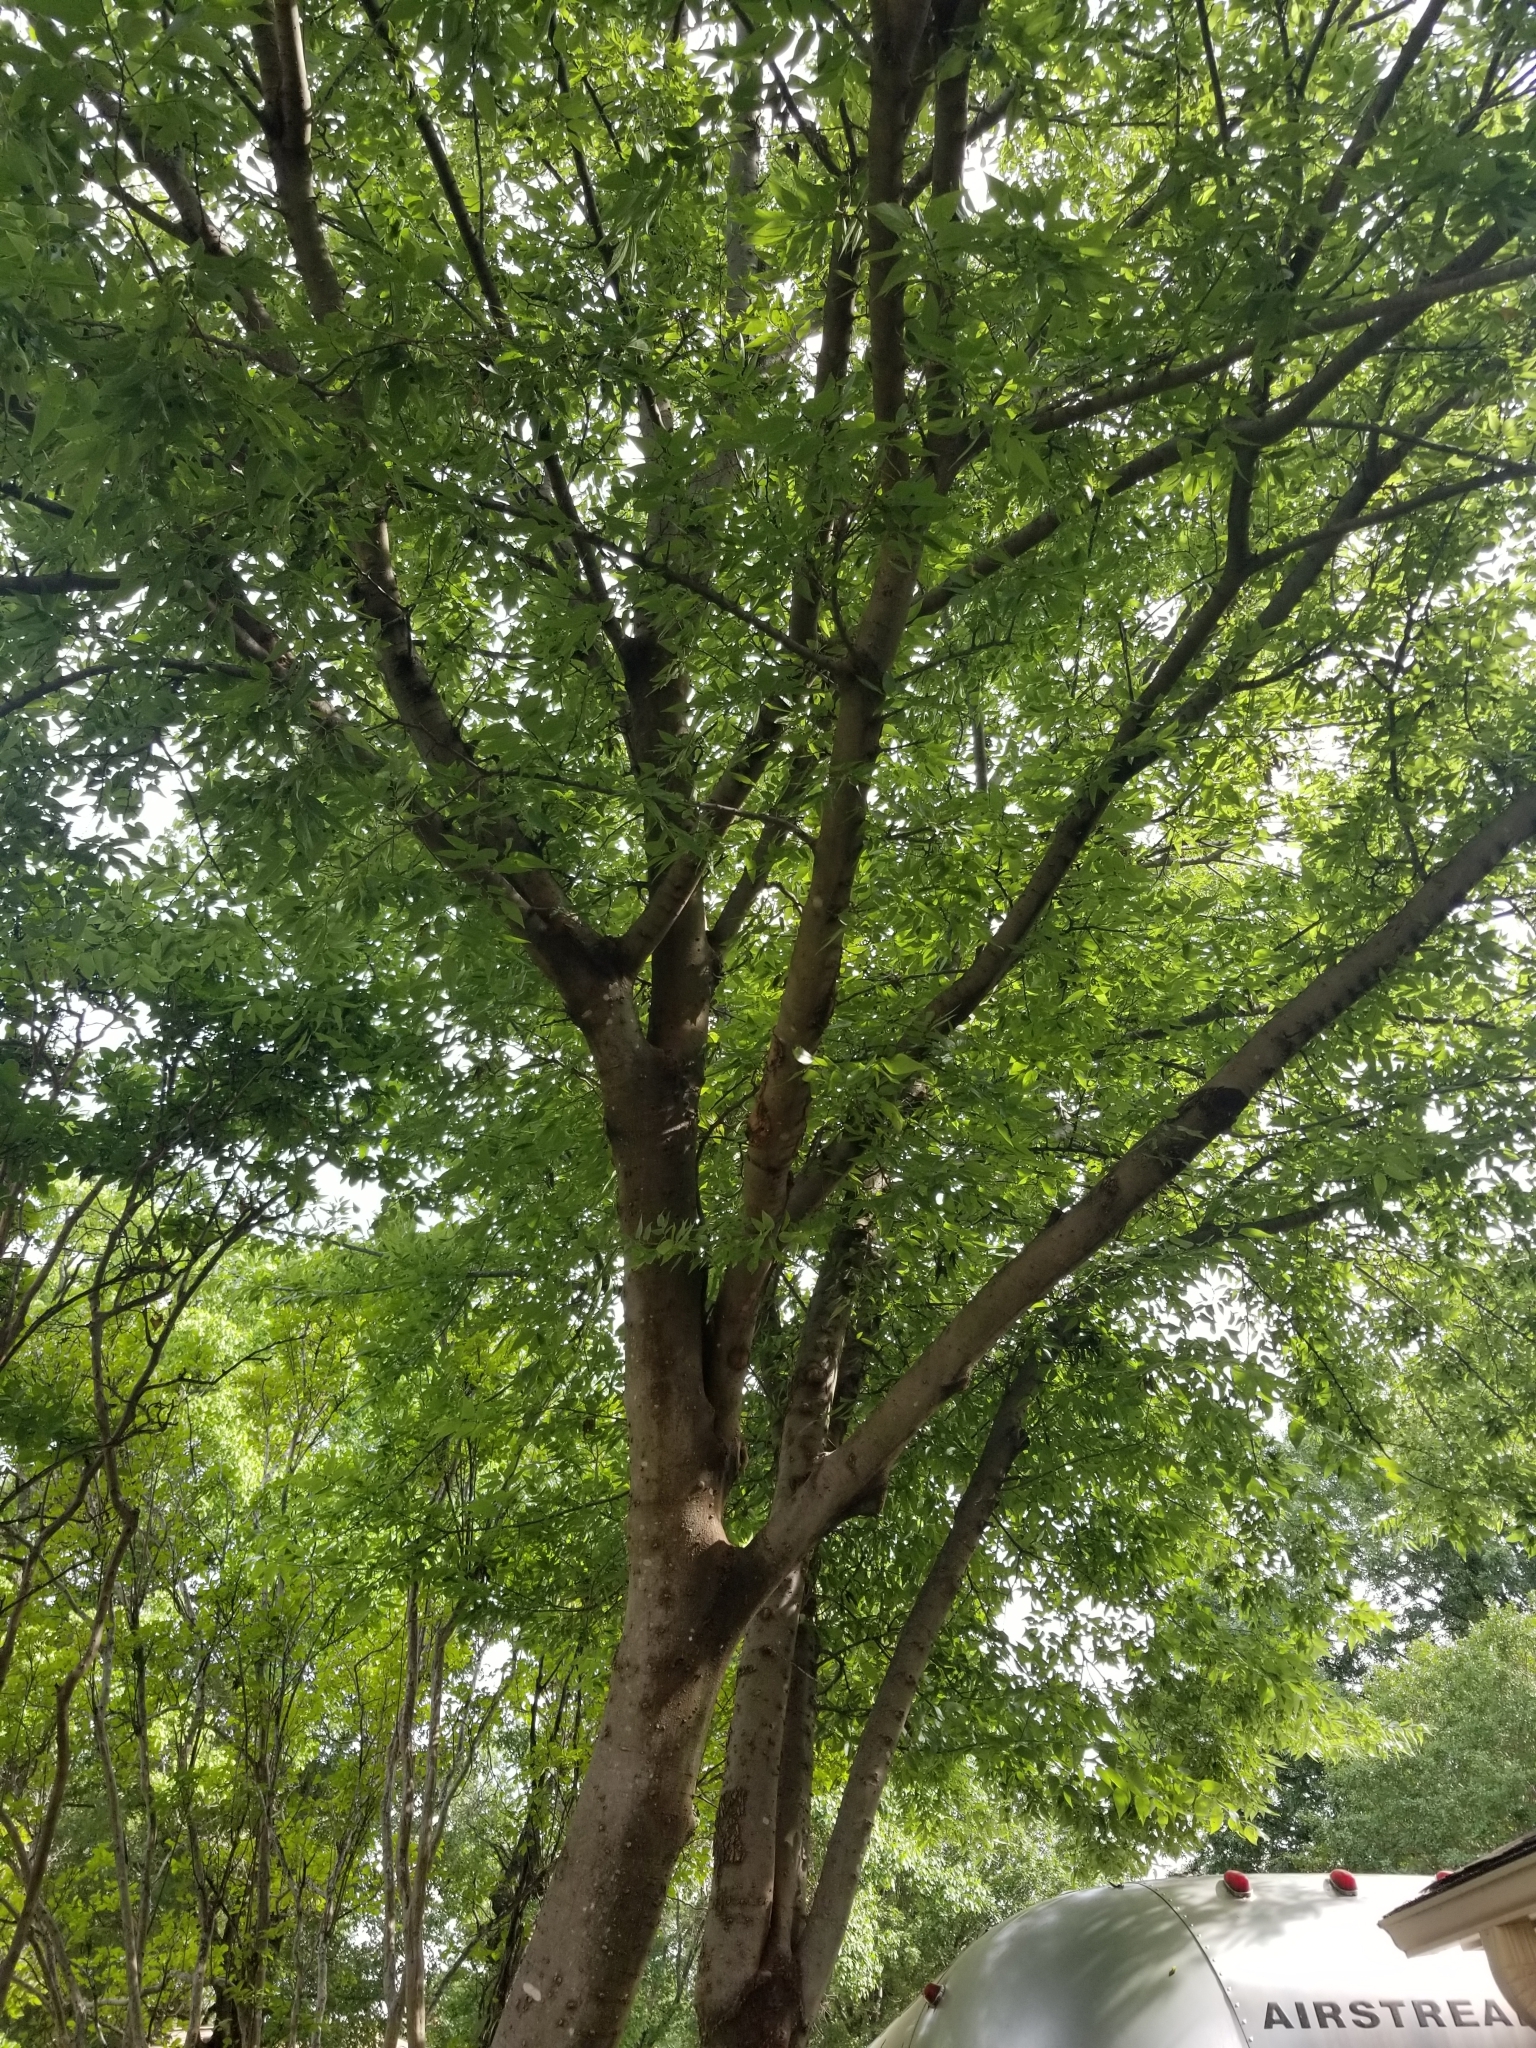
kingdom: Plantae
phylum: Tracheophyta
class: Magnoliopsida
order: Rosales
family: Cannabaceae
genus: Celtis
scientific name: Celtis laevigata
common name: Sugarberry
